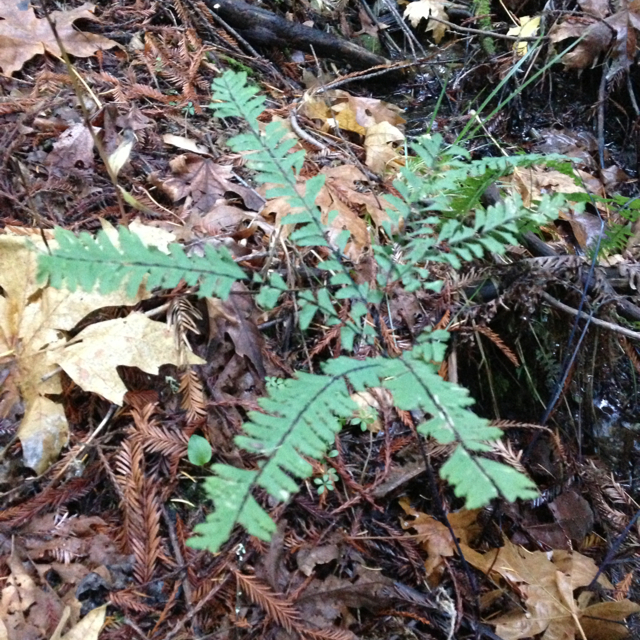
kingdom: Plantae
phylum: Tracheophyta
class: Polypodiopsida
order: Polypodiales
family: Pteridaceae
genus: Adiantum
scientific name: Adiantum aleuticum
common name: Aleutian maidenhair fern
